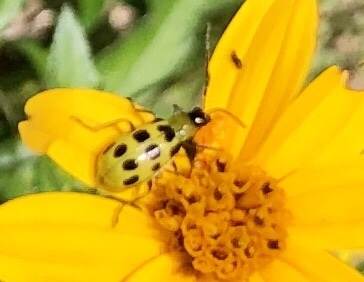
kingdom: Animalia
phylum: Arthropoda
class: Insecta
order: Coleoptera
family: Chrysomelidae
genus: Diabrotica
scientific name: Diabrotica undecimpunctata
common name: Spotted cucumber beetle
